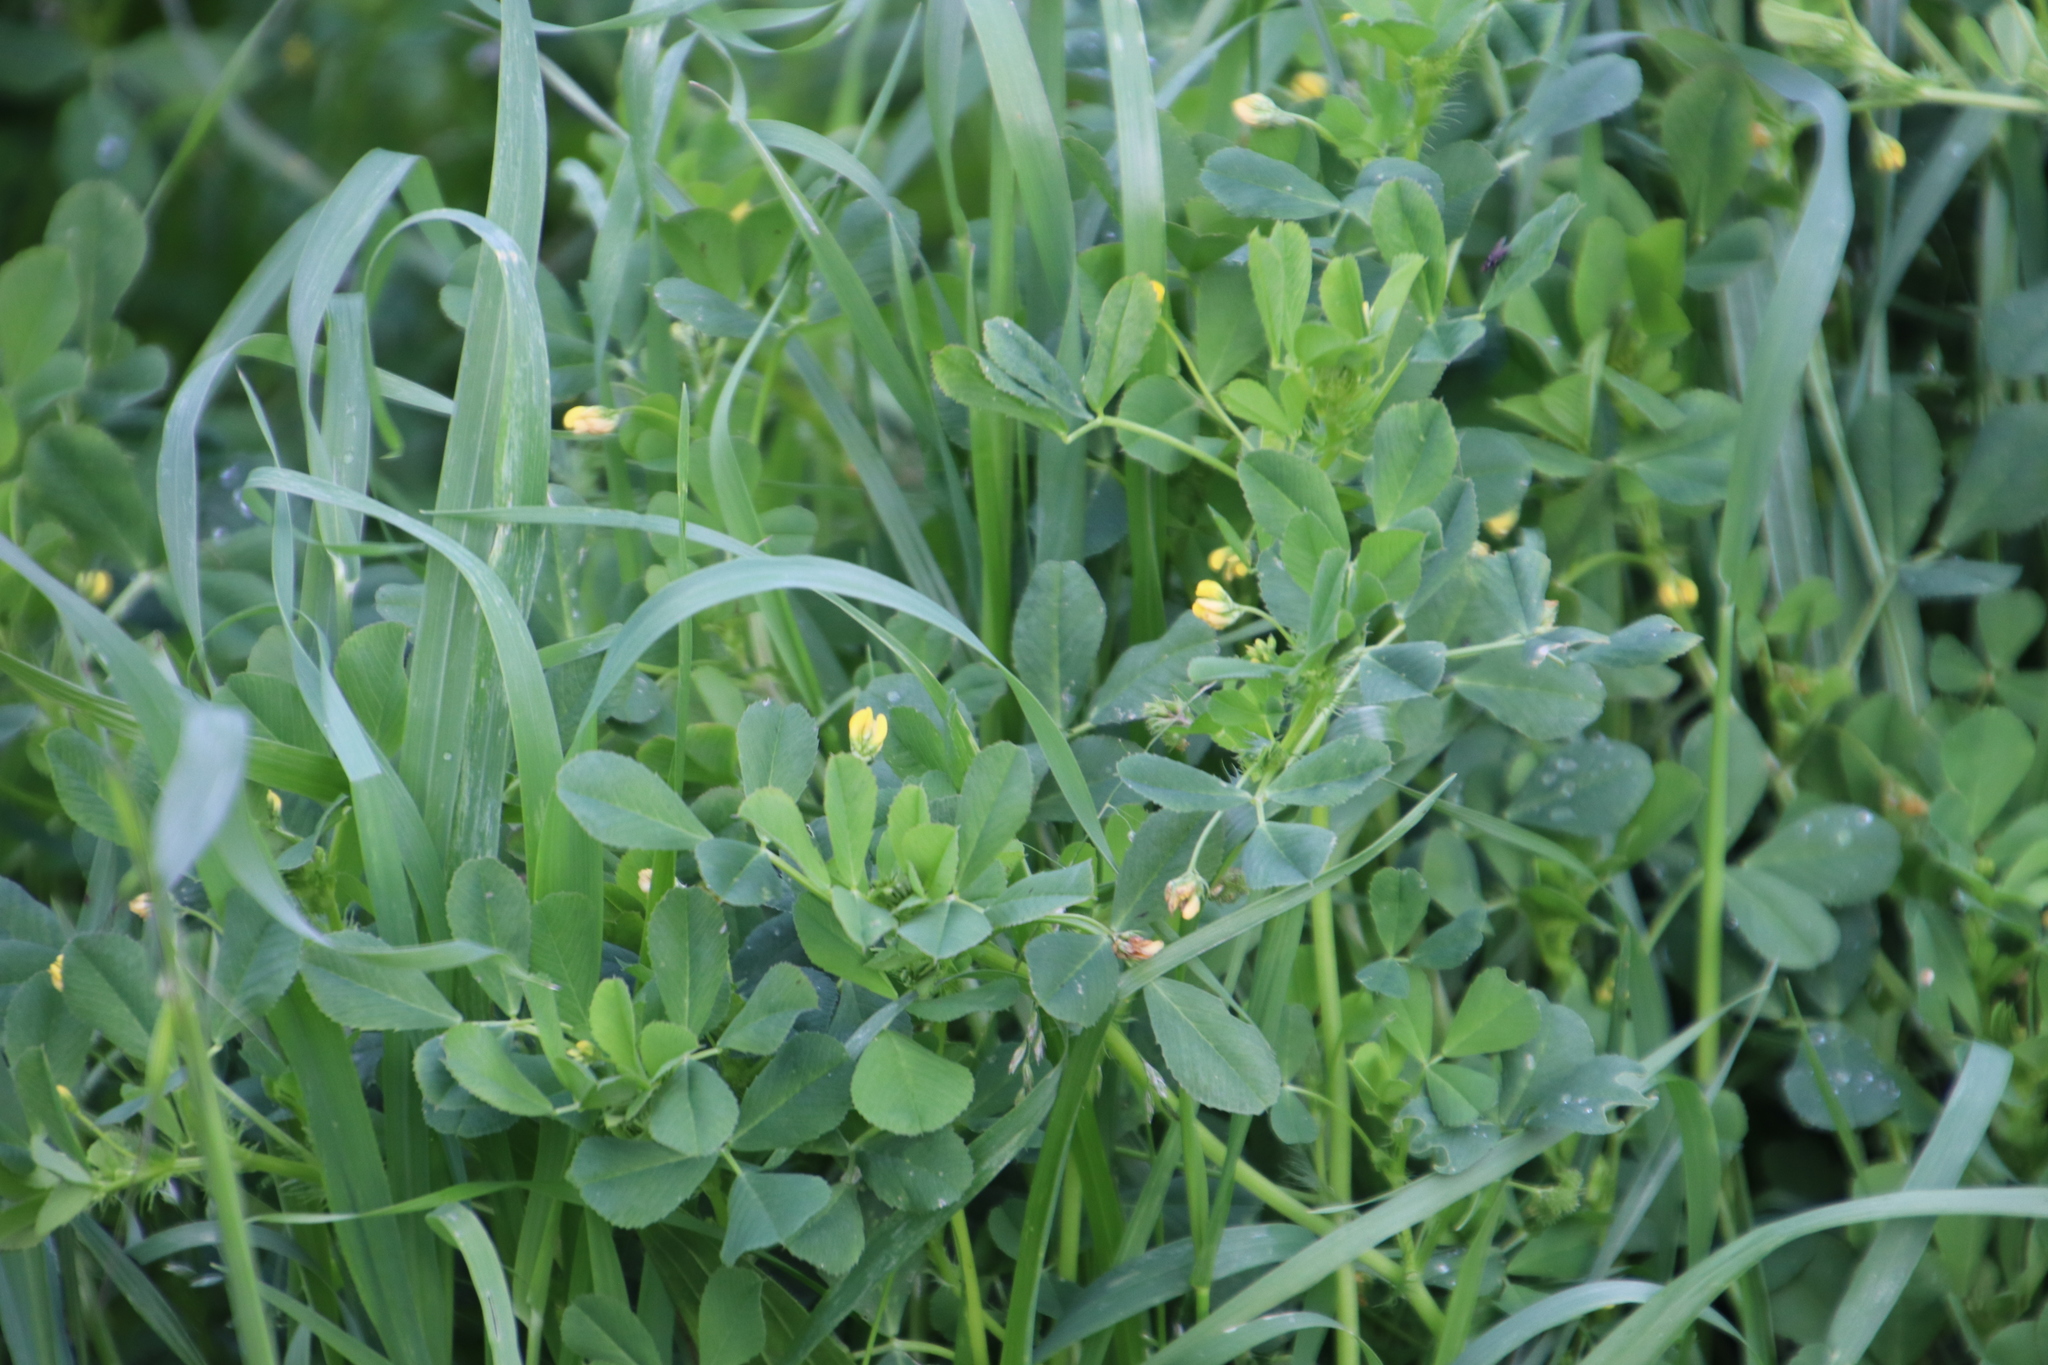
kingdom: Plantae
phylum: Tracheophyta
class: Magnoliopsida
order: Fabales
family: Fabaceae
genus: Medicago
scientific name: Medicago polymorpha
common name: Burclover
